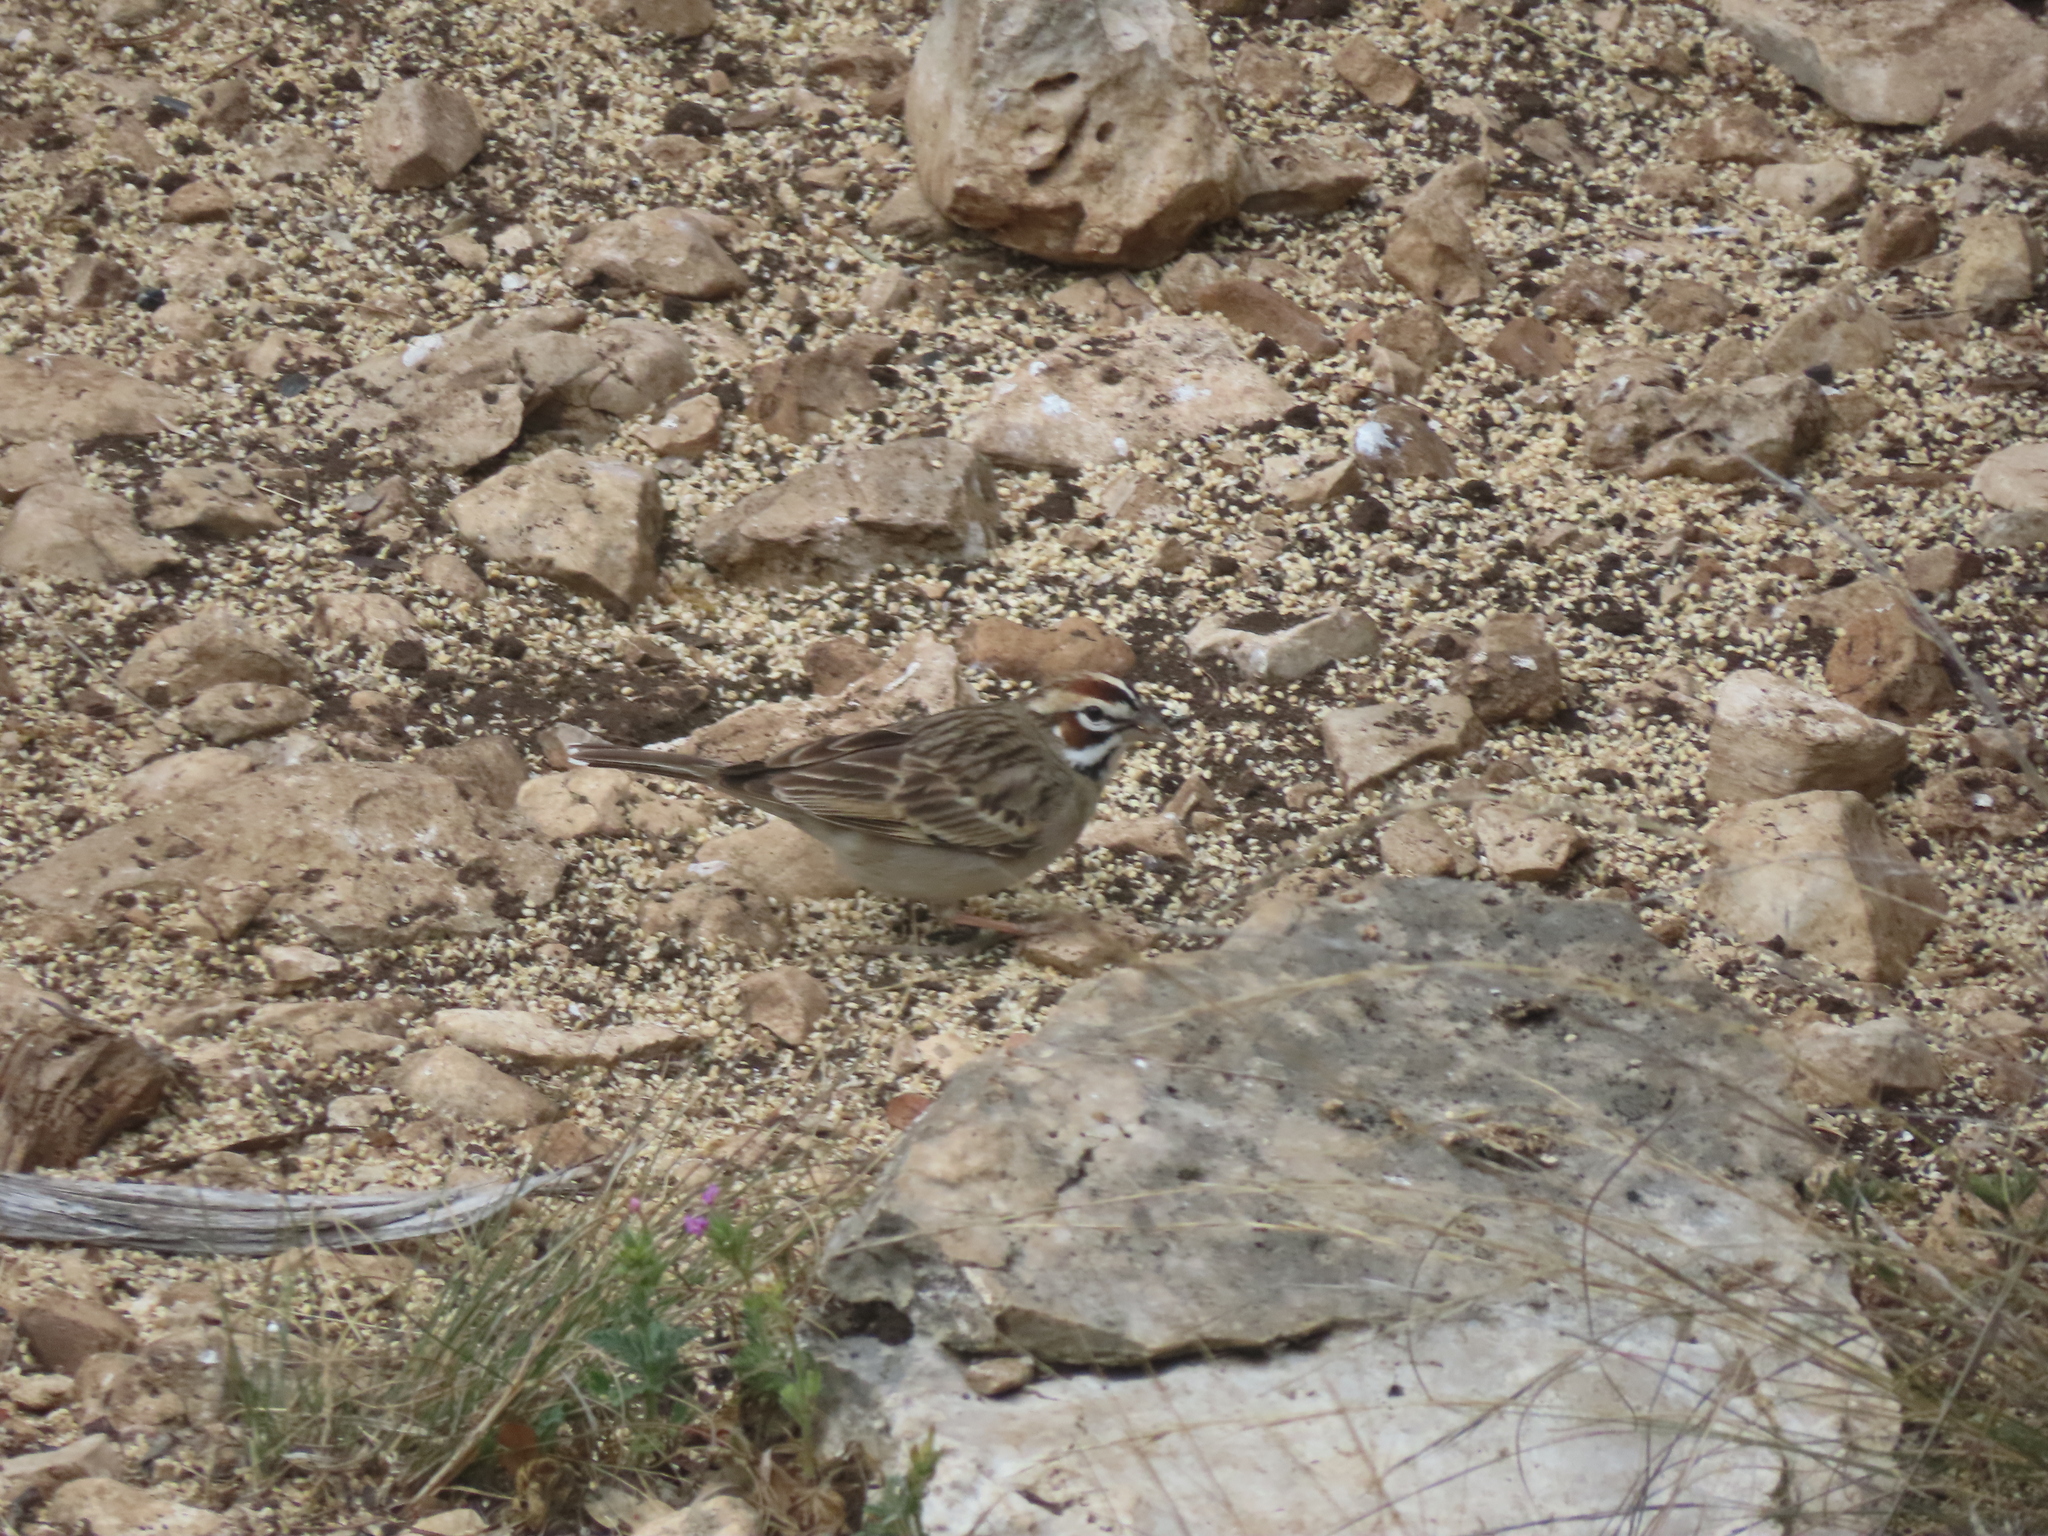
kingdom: Animalia
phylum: Chordata
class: Aves
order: Passeriformes
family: Passerellidae
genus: Chondestes
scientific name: Chondestes grammacus
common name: Lark sparrow
